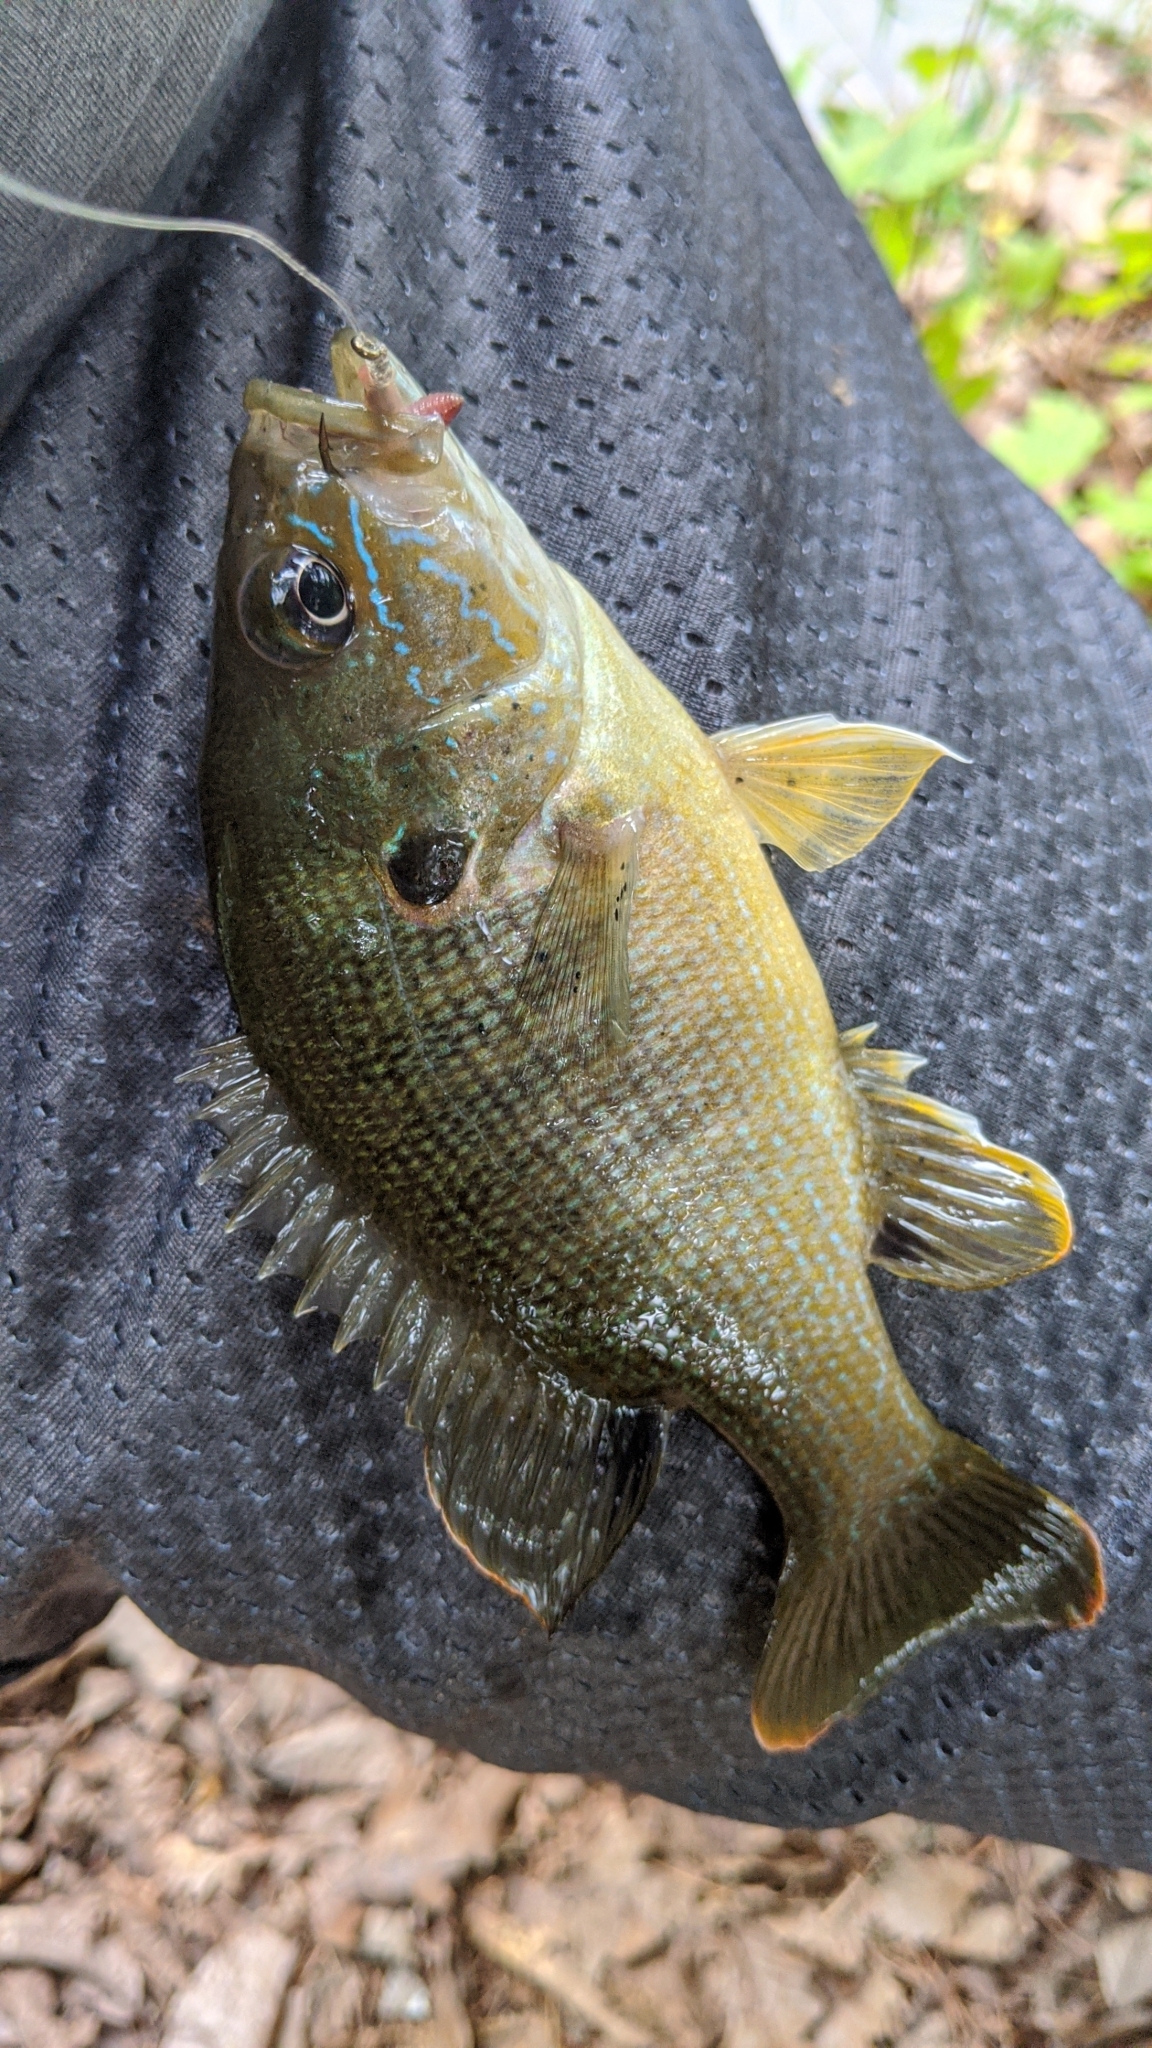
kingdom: Animalia
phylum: Chordata
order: Perciformes
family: Centrarchidae
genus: Lepomis
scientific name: Lepomis cyanellus
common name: Green sunfish
